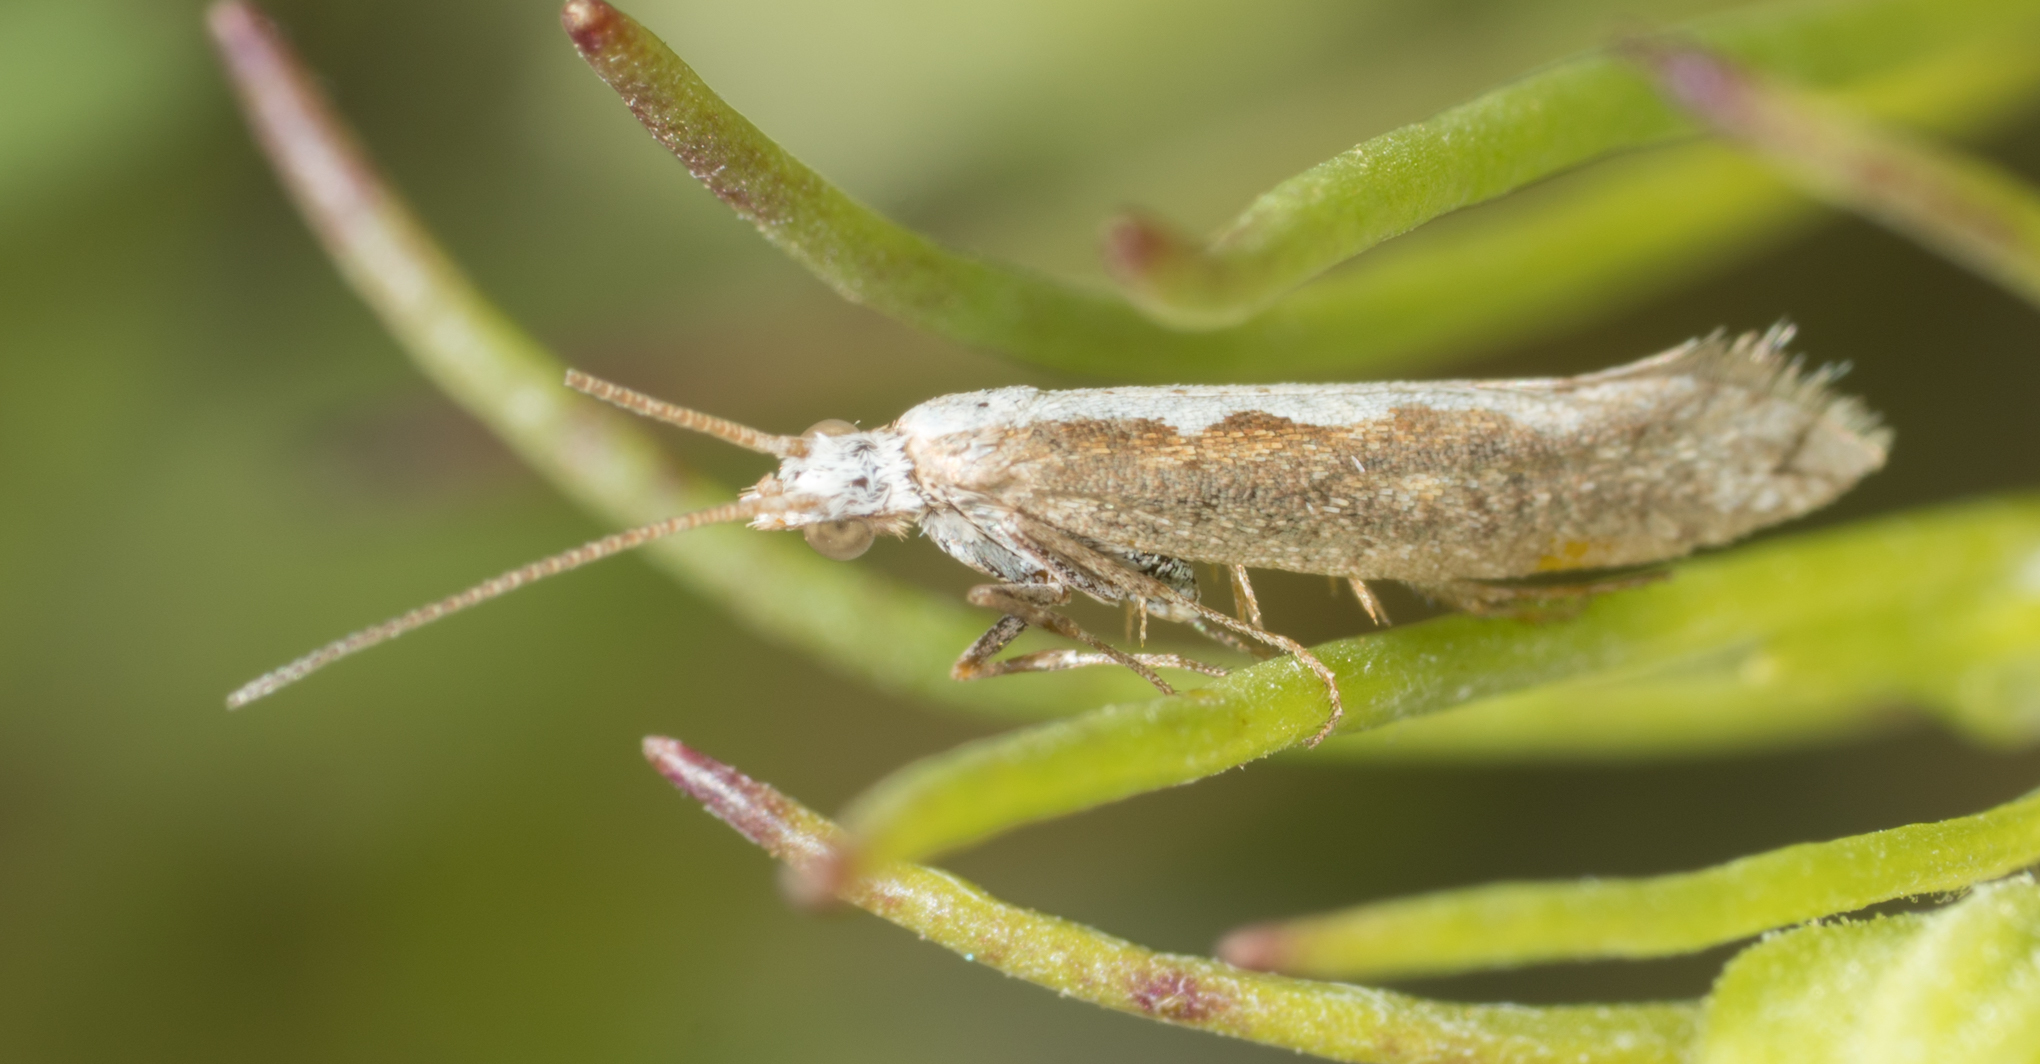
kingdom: Animalia
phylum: Arthropoda
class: Insecta
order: Lepidoptera
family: Plutellidae
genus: Plutella
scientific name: Plutella xylostella
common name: Diamond-back moth
